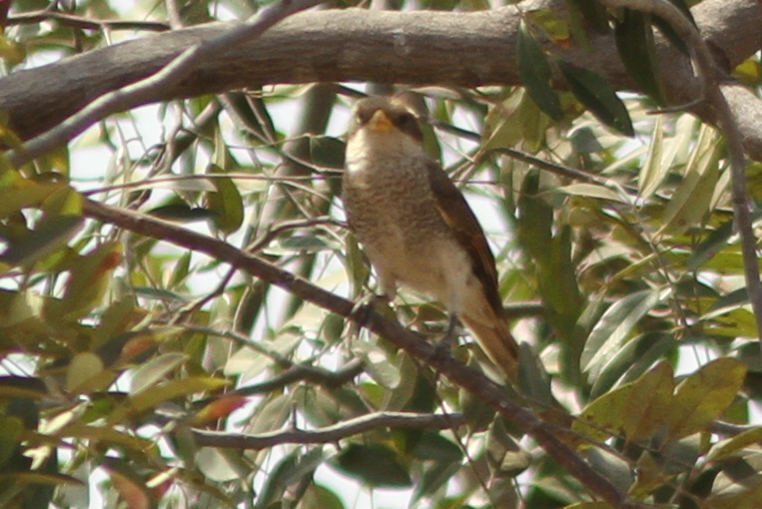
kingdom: Animalia
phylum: Chordata
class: Aves
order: Passeriformes
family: Laniidae
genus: Corvinella
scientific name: Corvinella corvina
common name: Yellow-billed shrike
